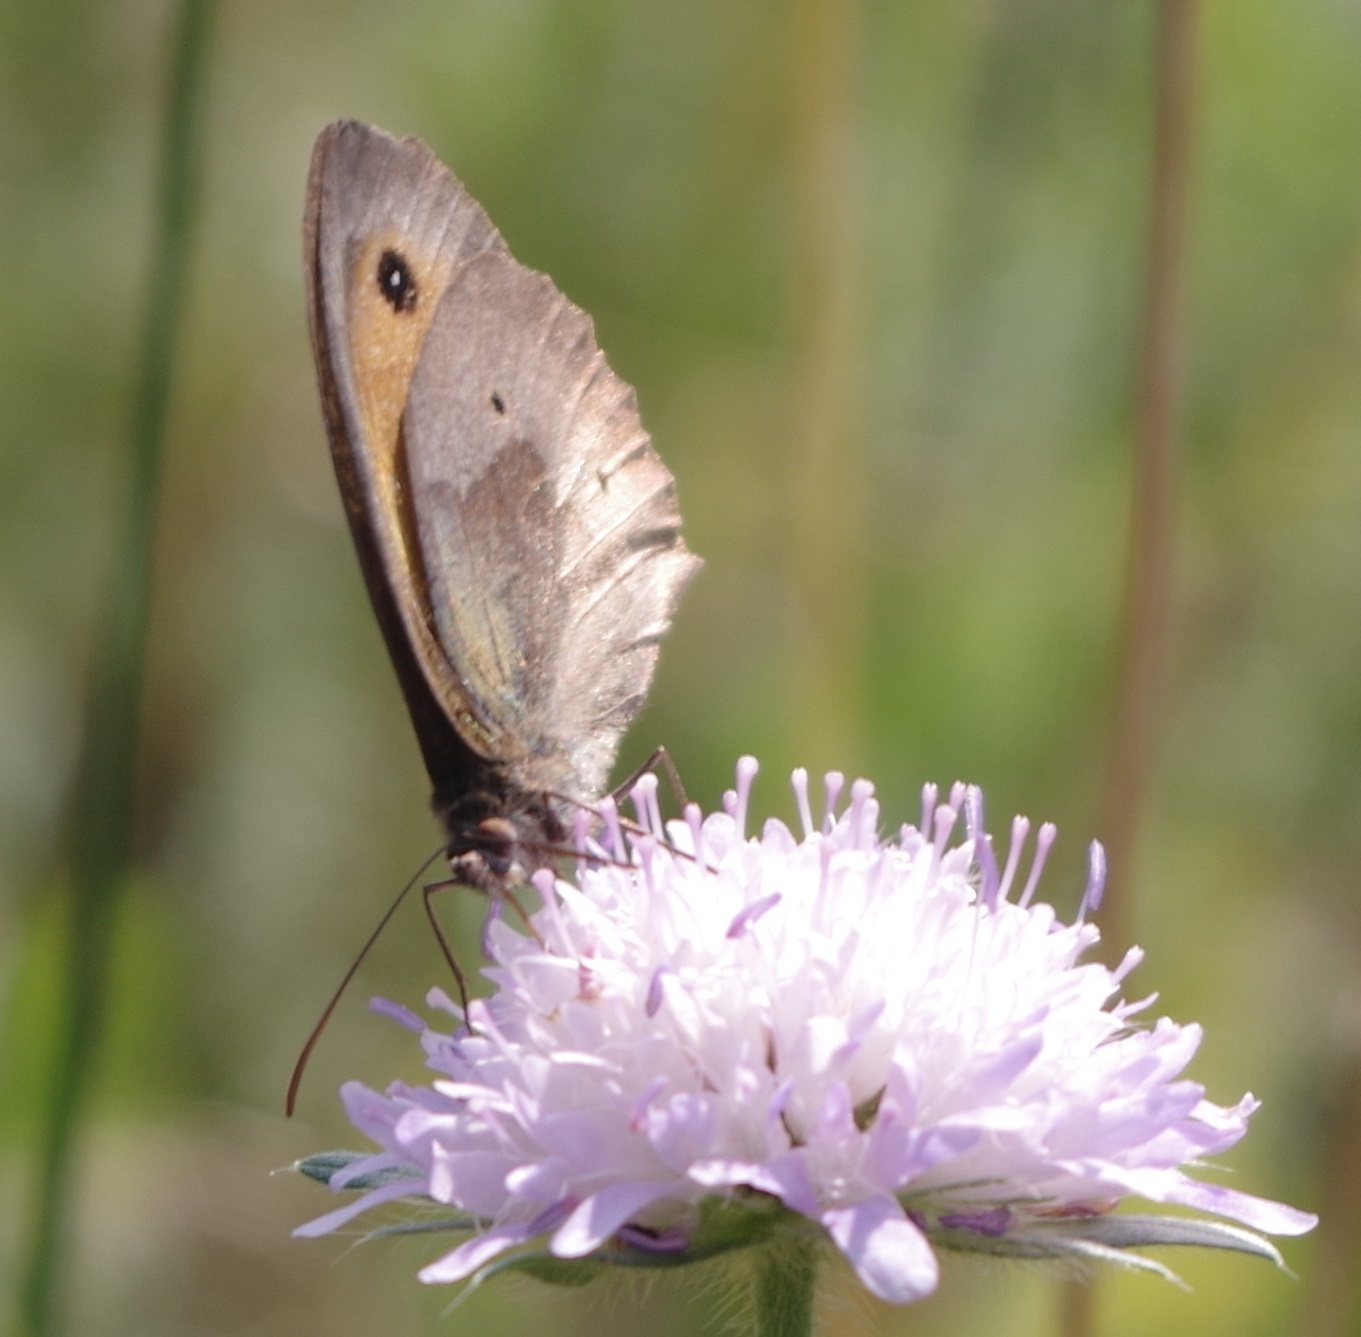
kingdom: Animalia
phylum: Arthropoda
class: Insecta
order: Lepidoptera
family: Nymphalidae
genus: Maniola
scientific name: Maniola jurtina
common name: Meadow brown
